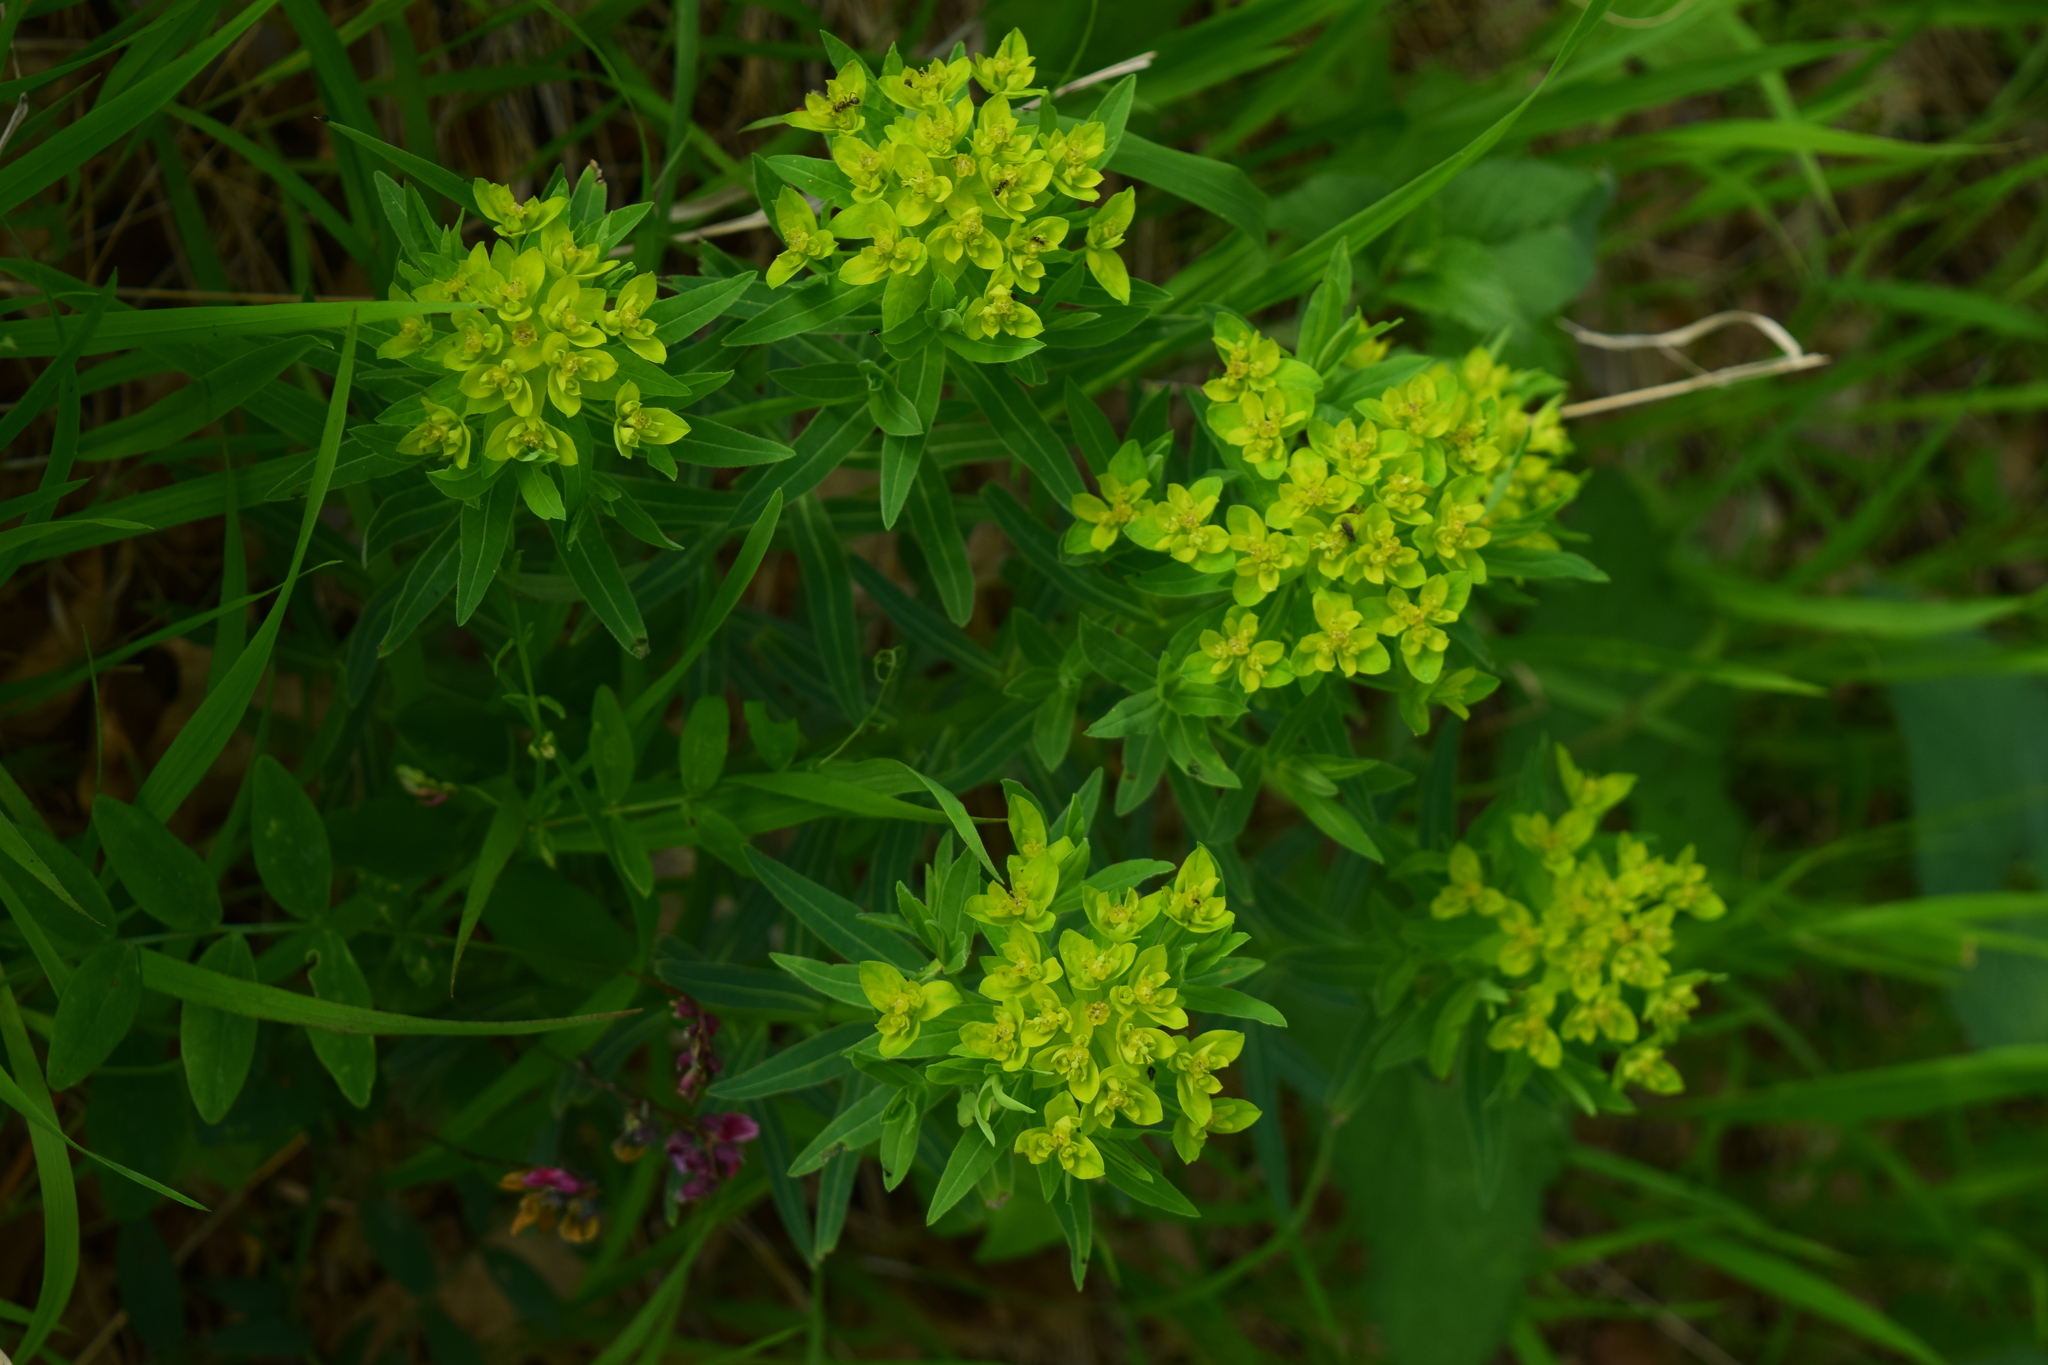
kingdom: Plantae
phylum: Tracheophyta
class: Magnoliopsida
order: Malpighiales
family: Euphorbiaceae
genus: Euphorbia
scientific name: Euphorbia semivillosa
